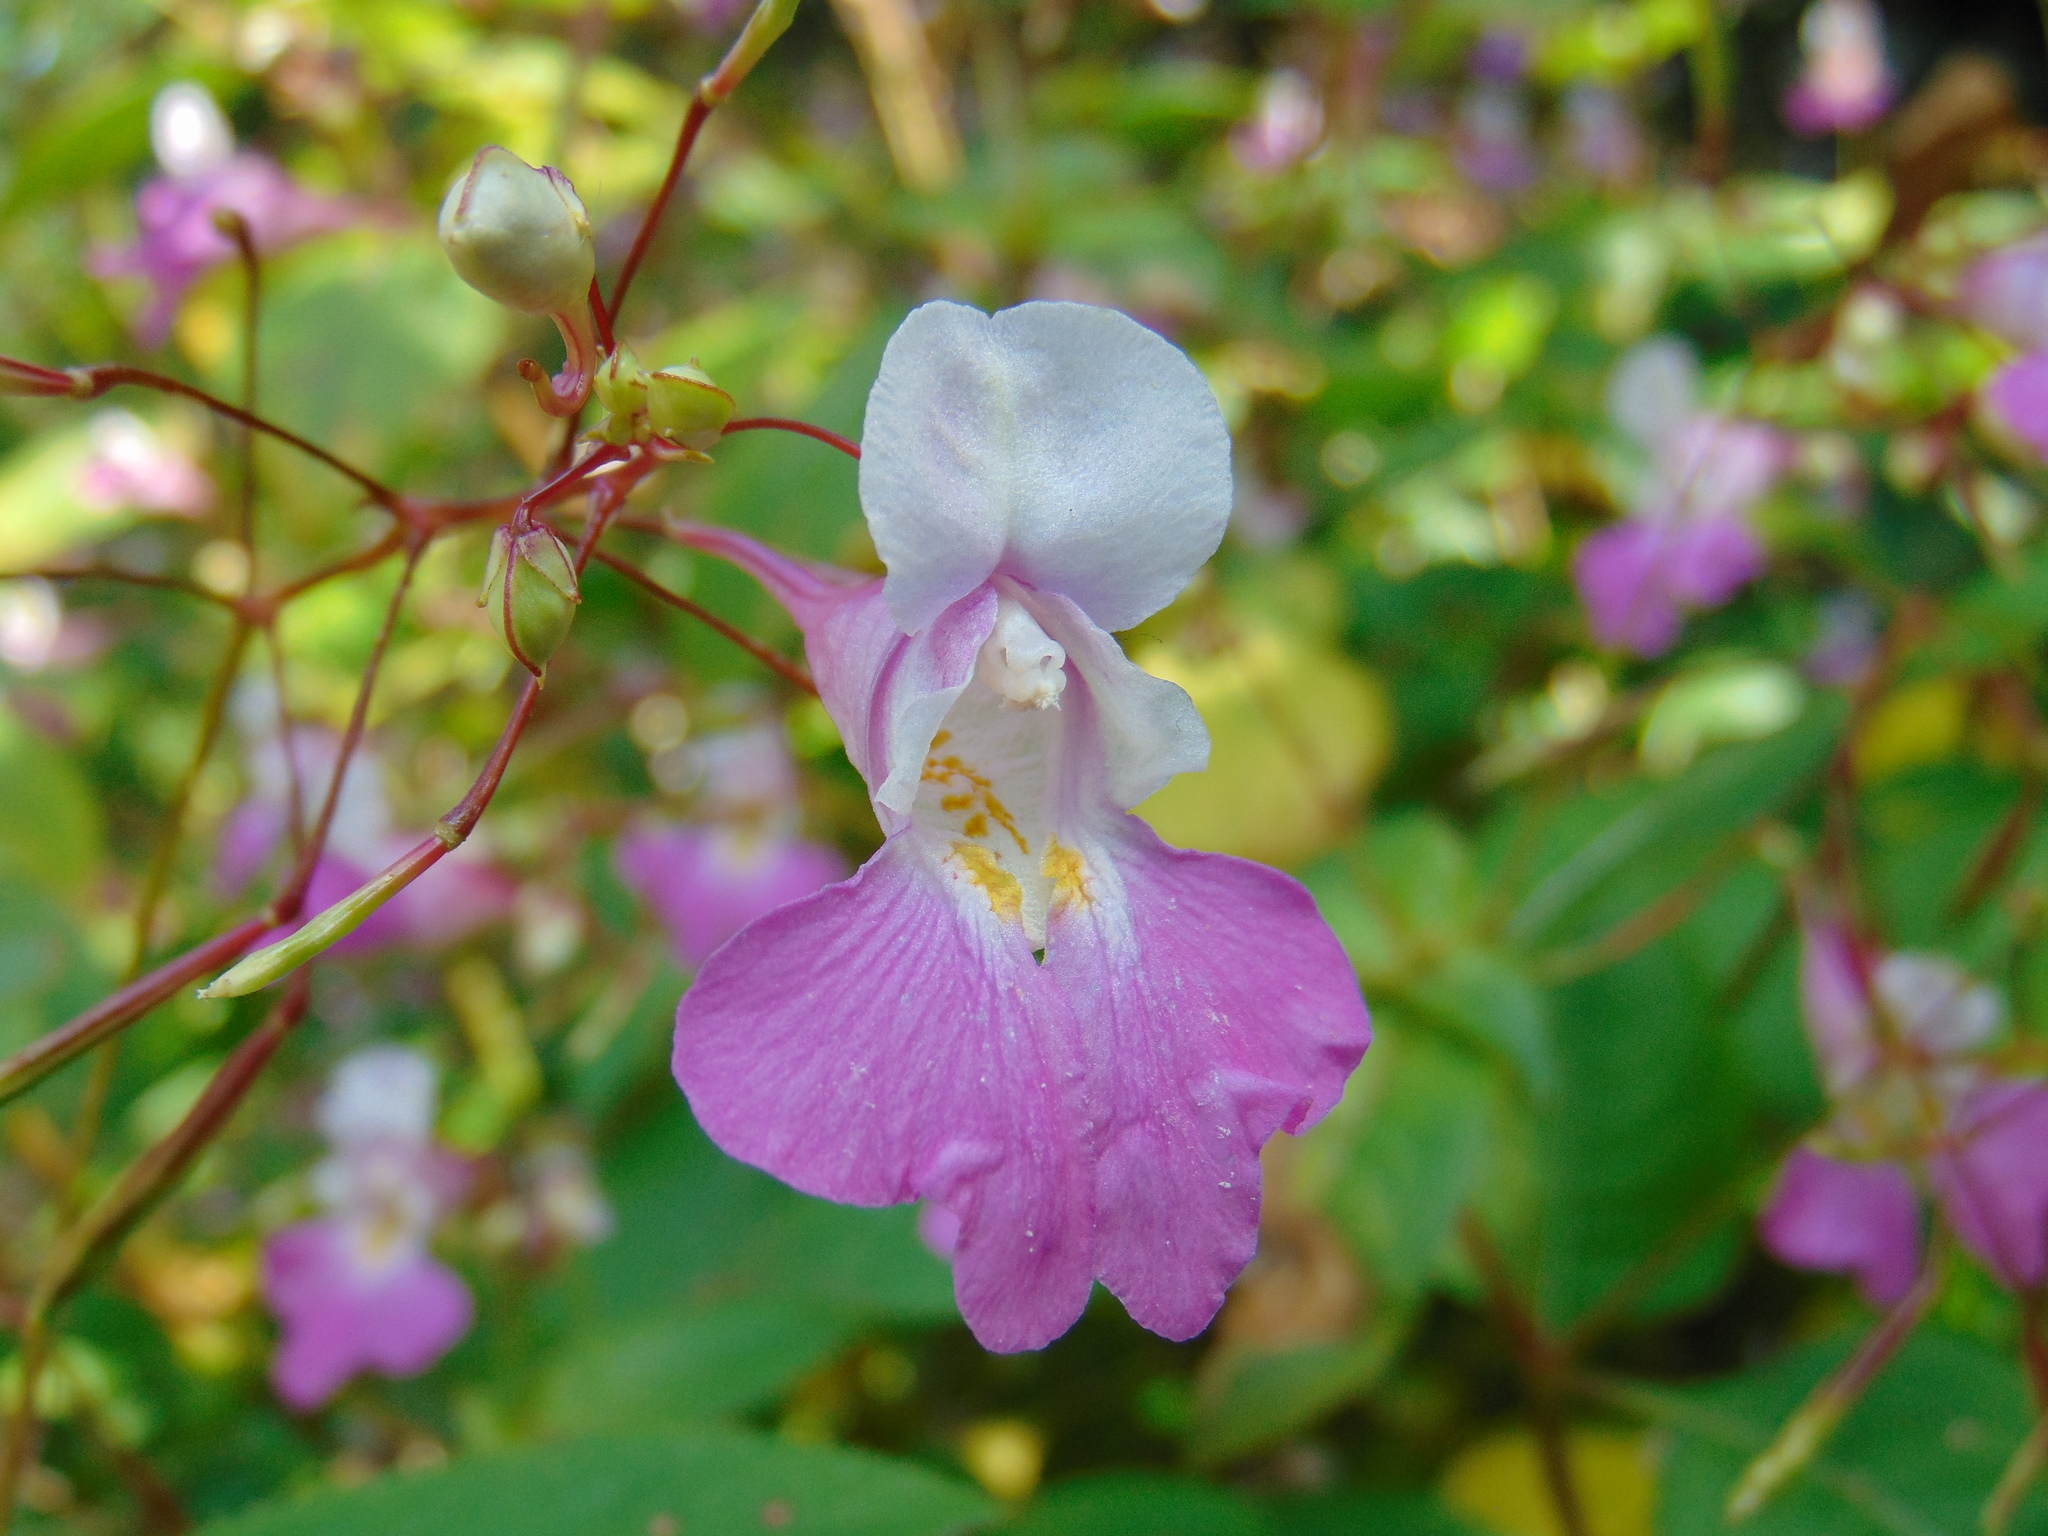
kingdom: Plantae
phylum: Tracheophyta
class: Magnoliopsida
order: Ericales
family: Balsaminaceae
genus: Impatiens
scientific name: Impatiens balfourii
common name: Balfour's touch-me-not
